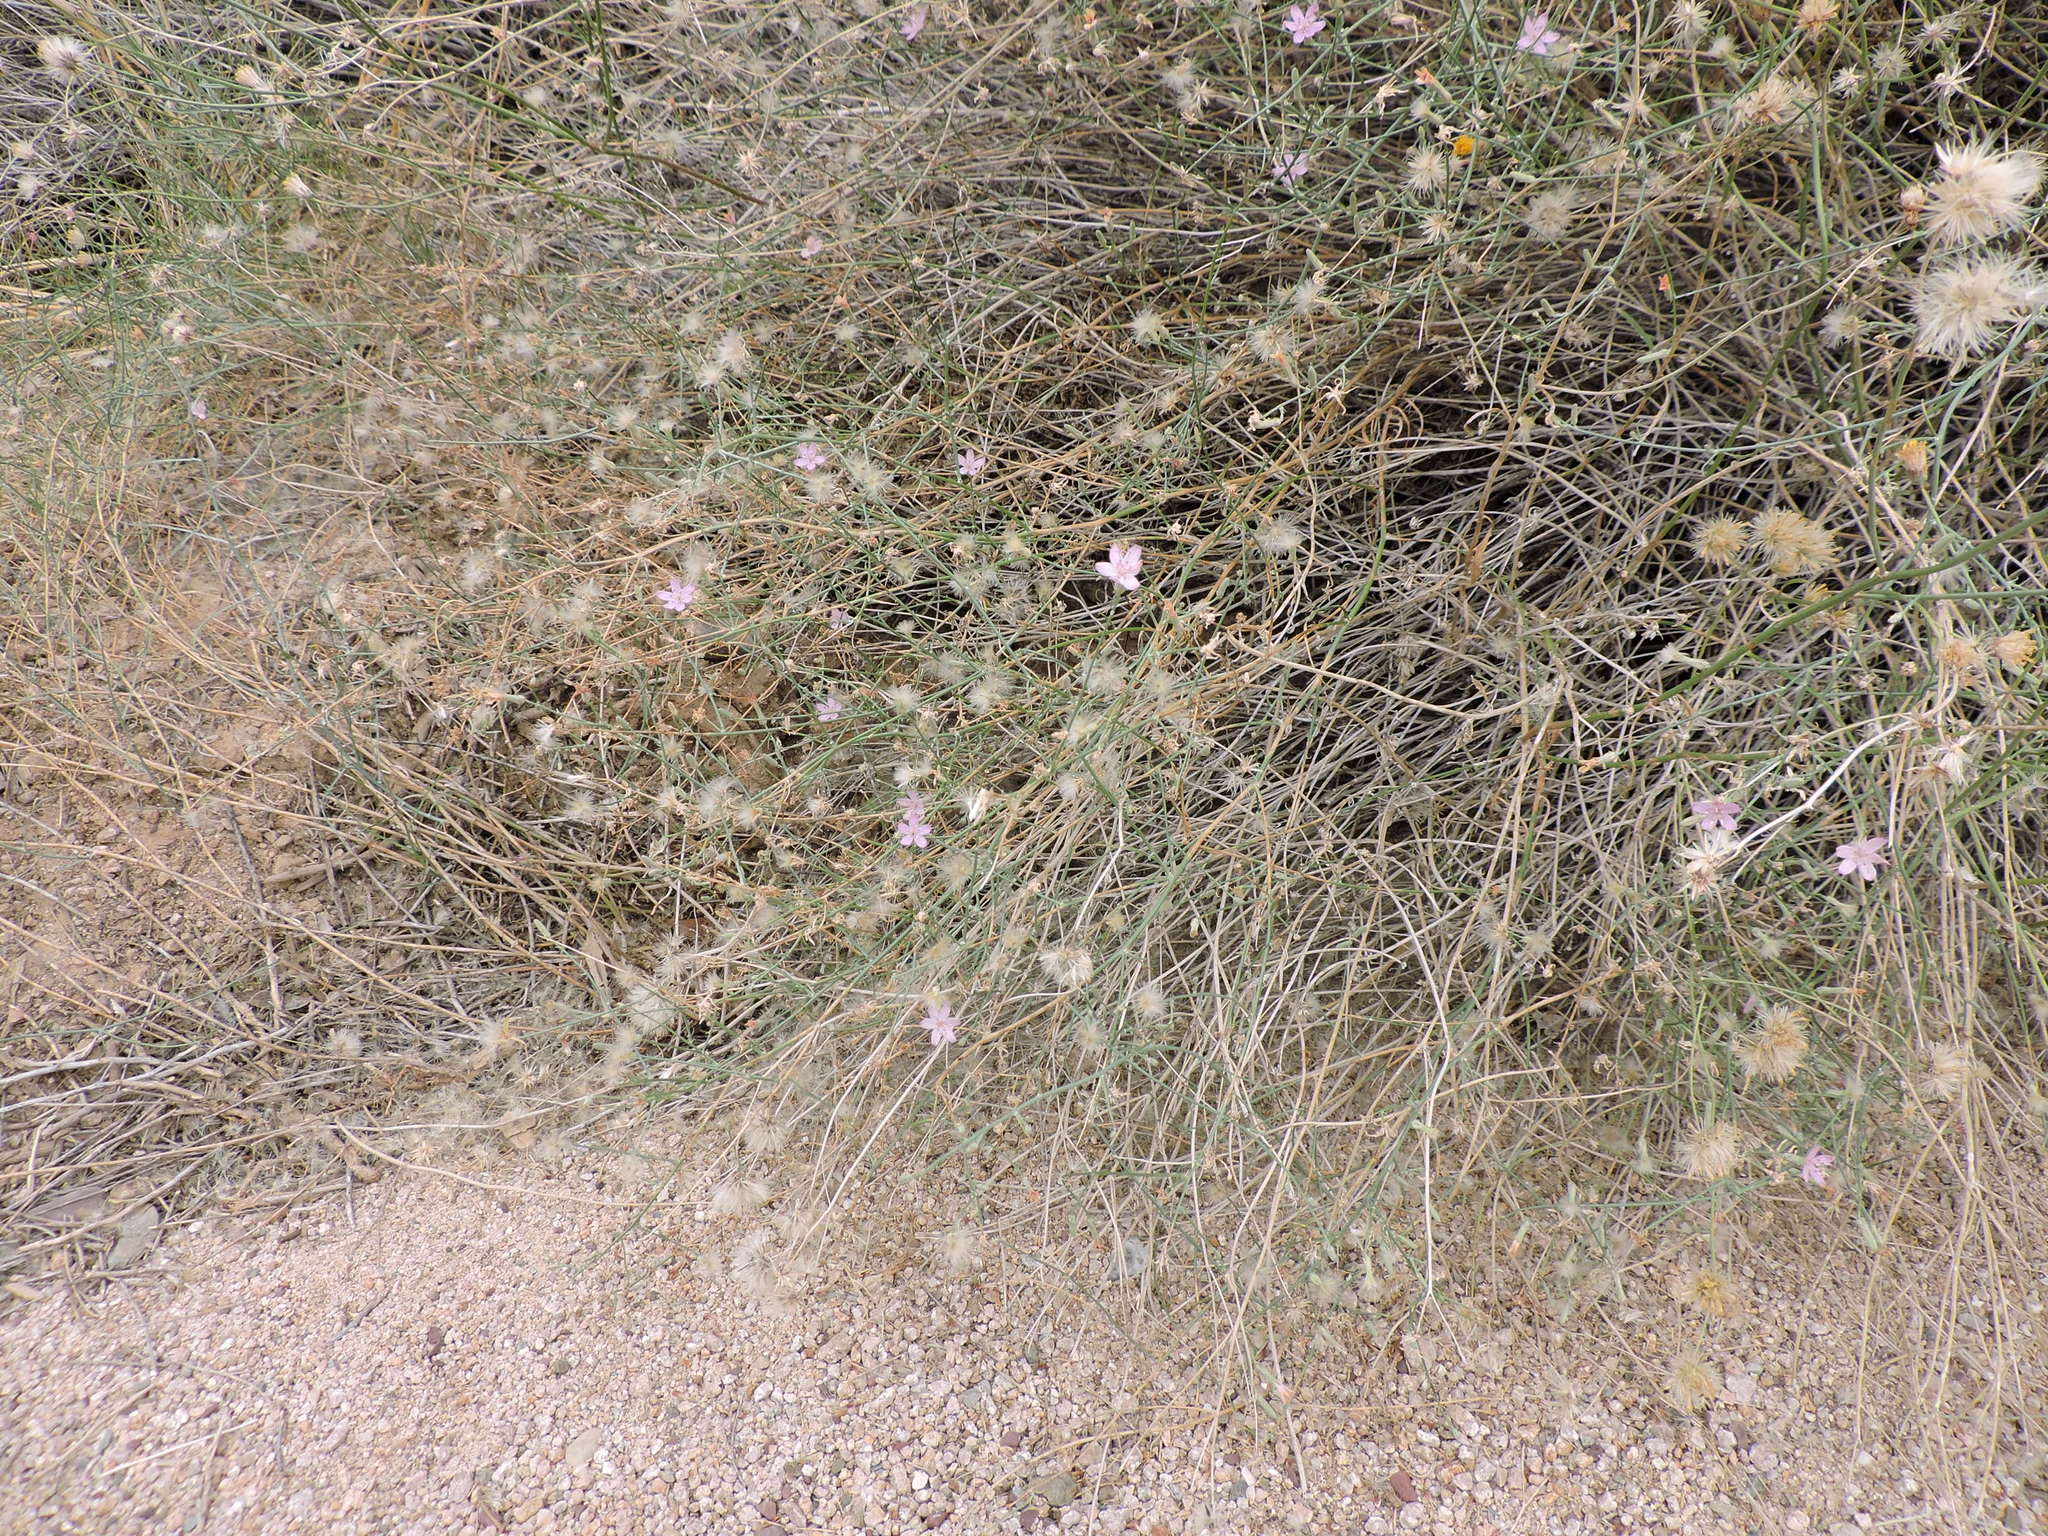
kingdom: Plantae
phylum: Tracheophyta
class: Magnoliopsida
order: Asterales
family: Asteraceae
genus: Stephanomeria
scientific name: Stephanomeria pauciflora
